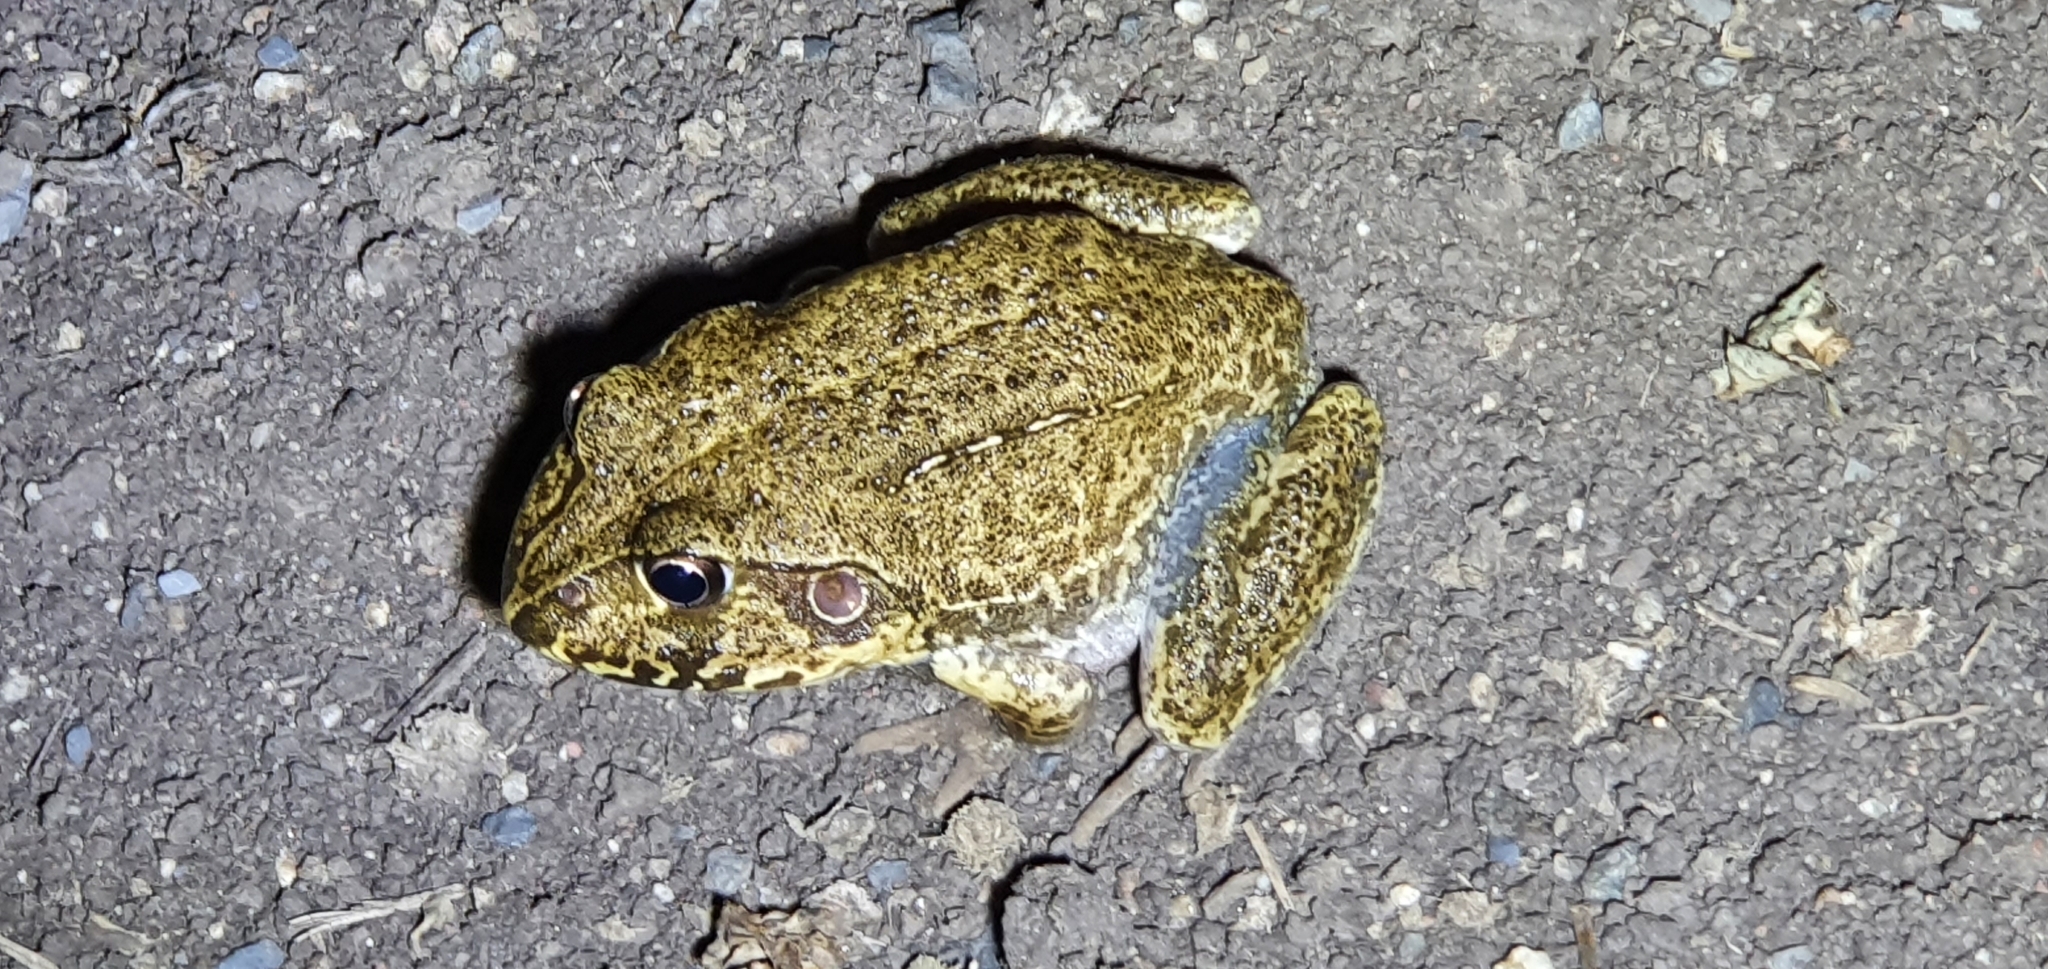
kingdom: Animalia
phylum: Chordata
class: Amphibia
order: Anura
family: Pelodryadidae
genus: Ranoidea
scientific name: Ranoidea novaehollandiae
